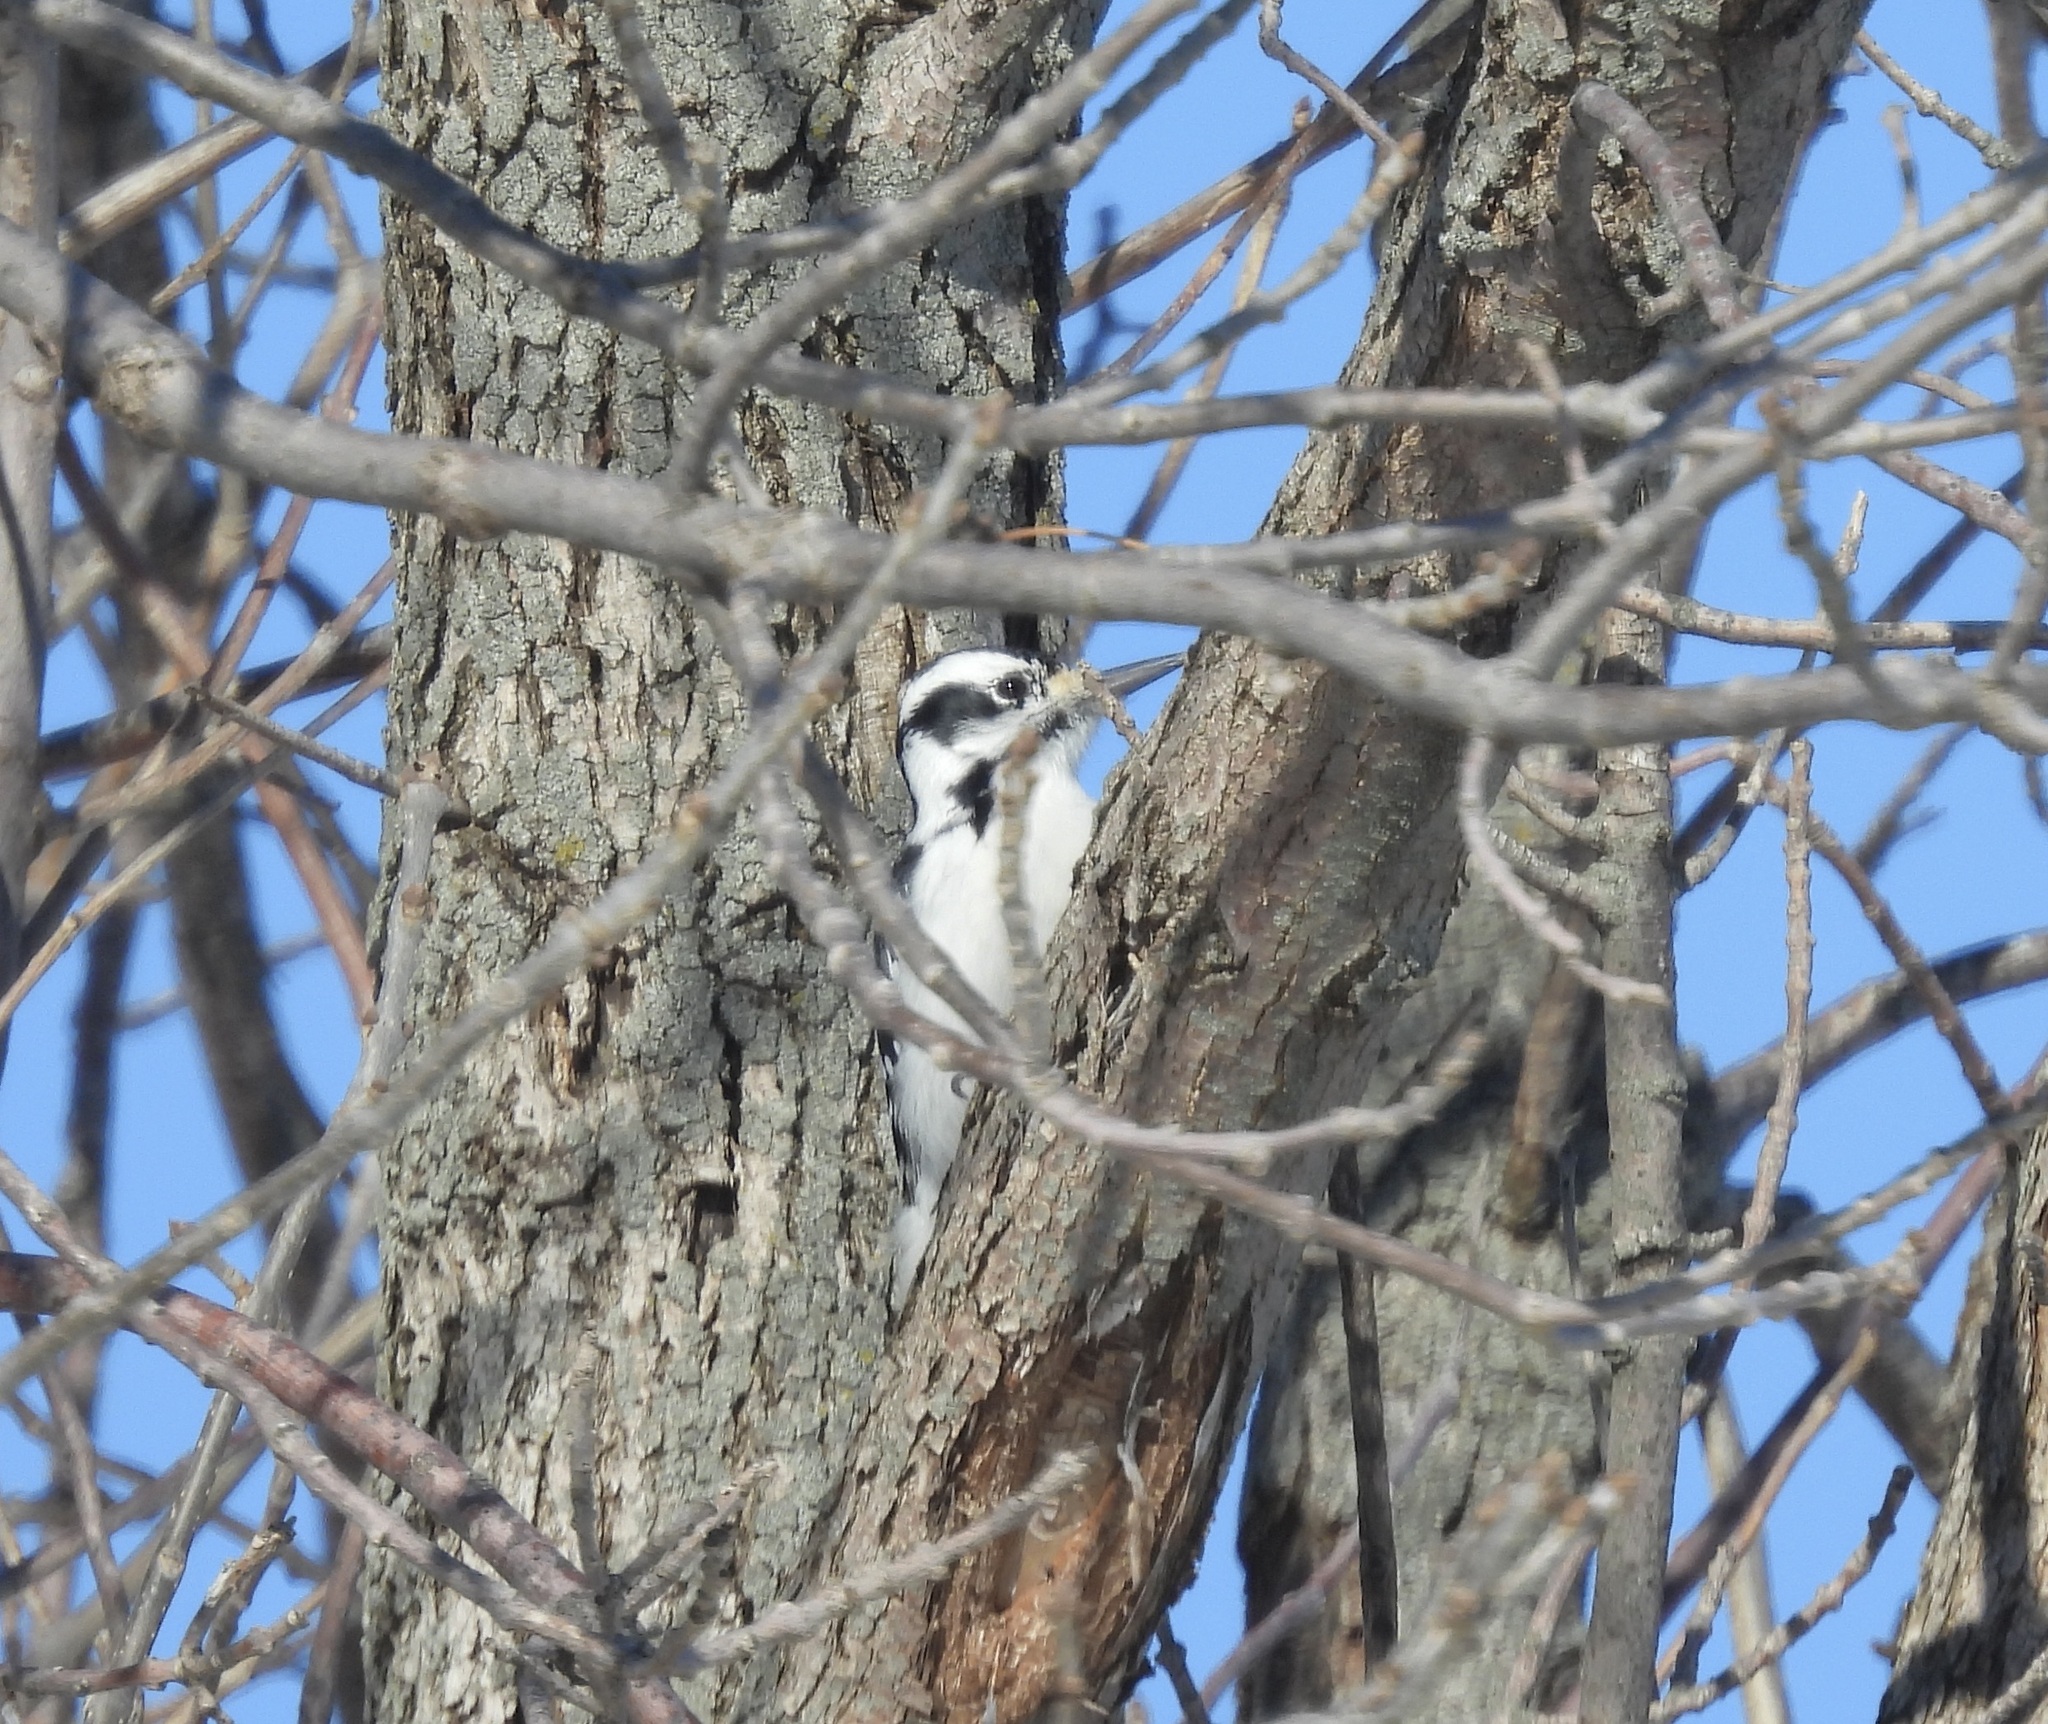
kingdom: Animalia
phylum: Chordata
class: Aves
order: Piciformes
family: Picidae
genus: Leuconotopicus
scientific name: Leuconotopicus villosus
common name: Hairy woodpecker
